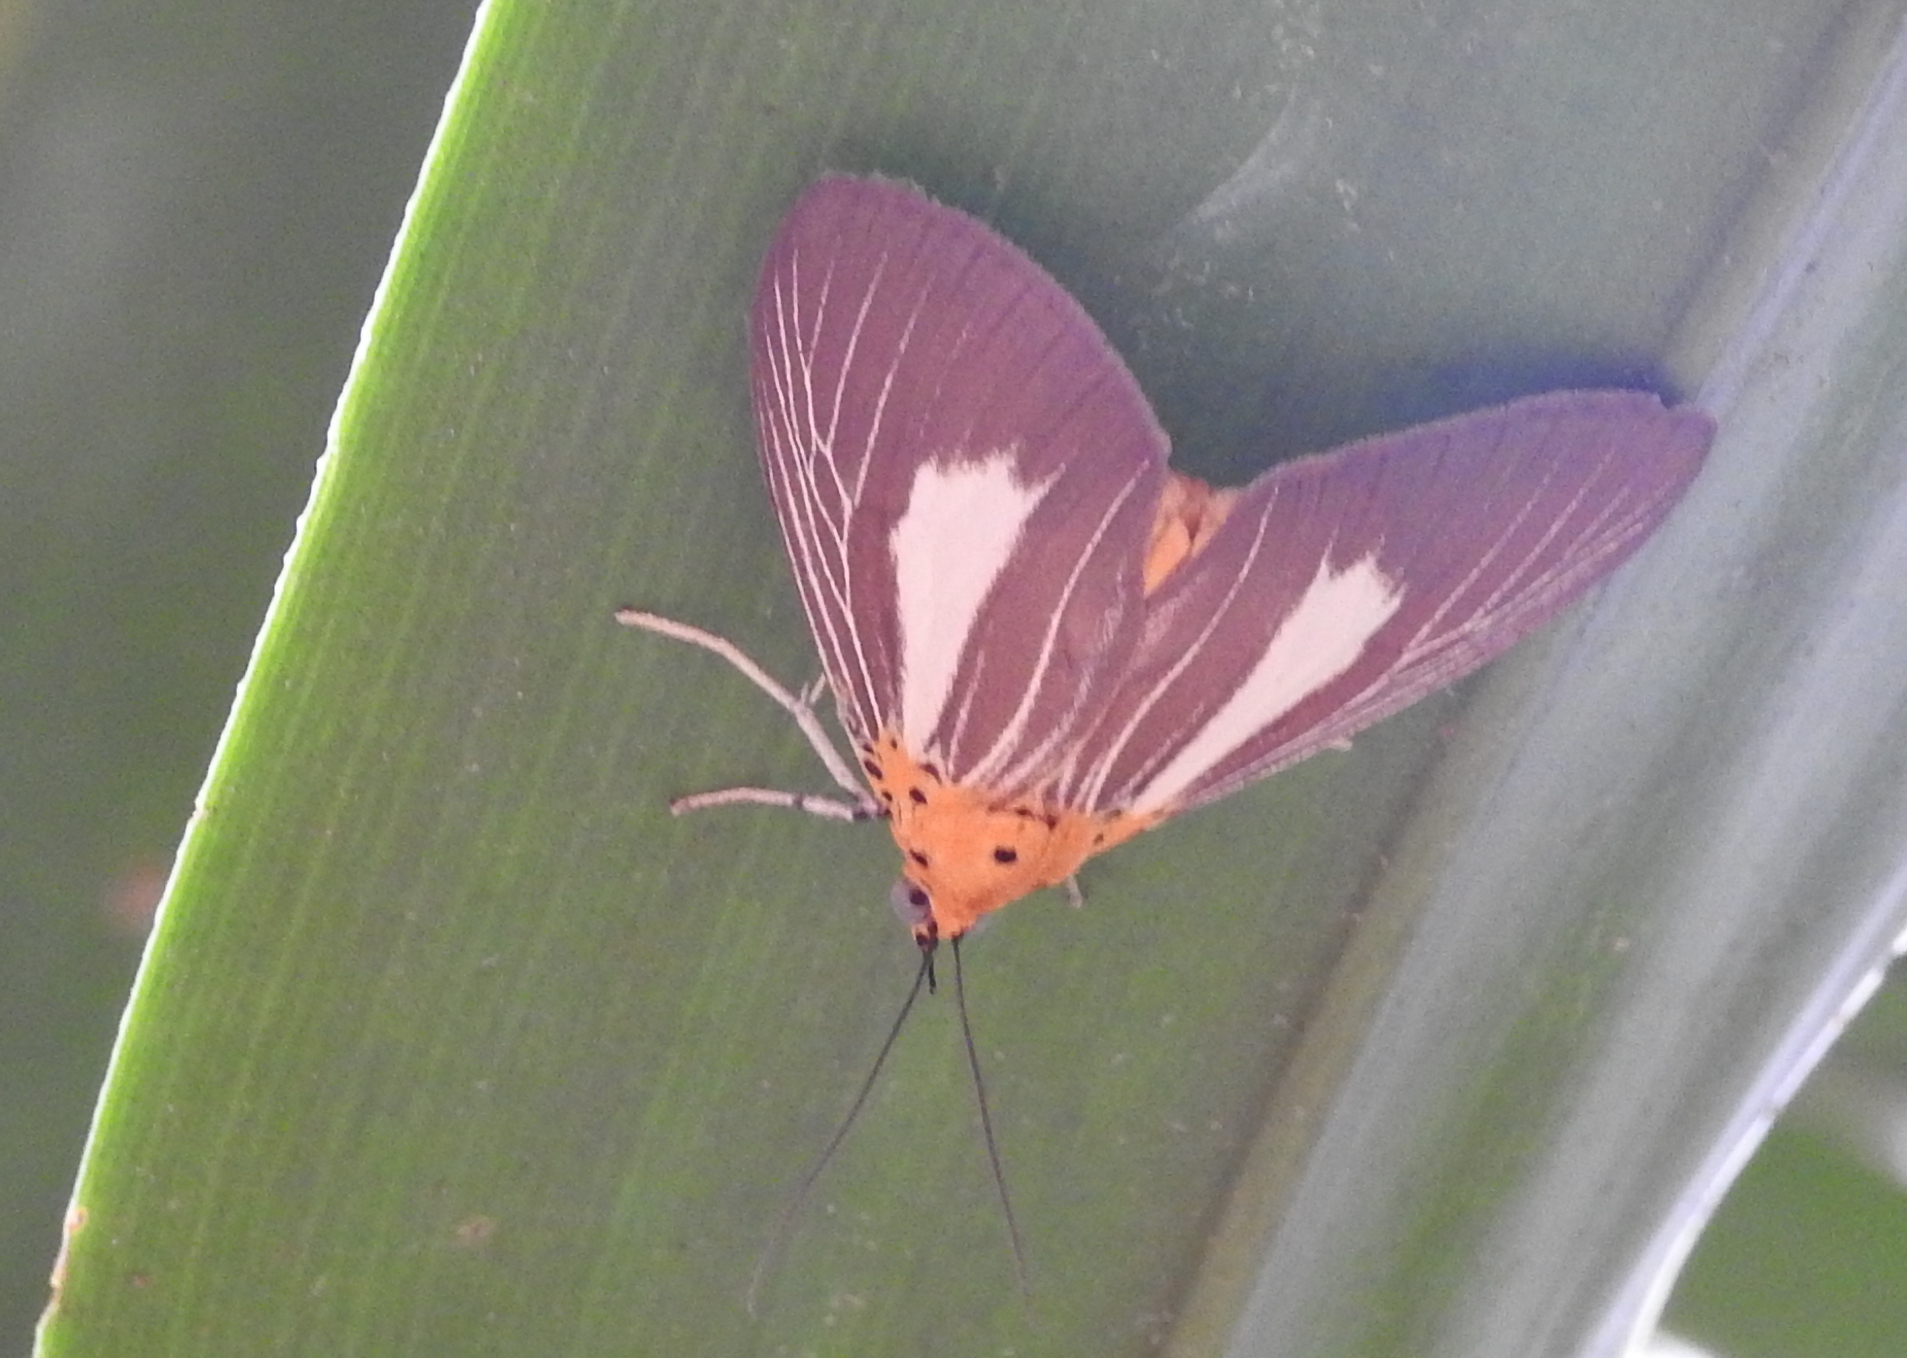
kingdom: Animalia
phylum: Arthropoda
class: Insecta
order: Lepidoptera
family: Erebidae
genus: Asota
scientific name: Asota subsimilis
